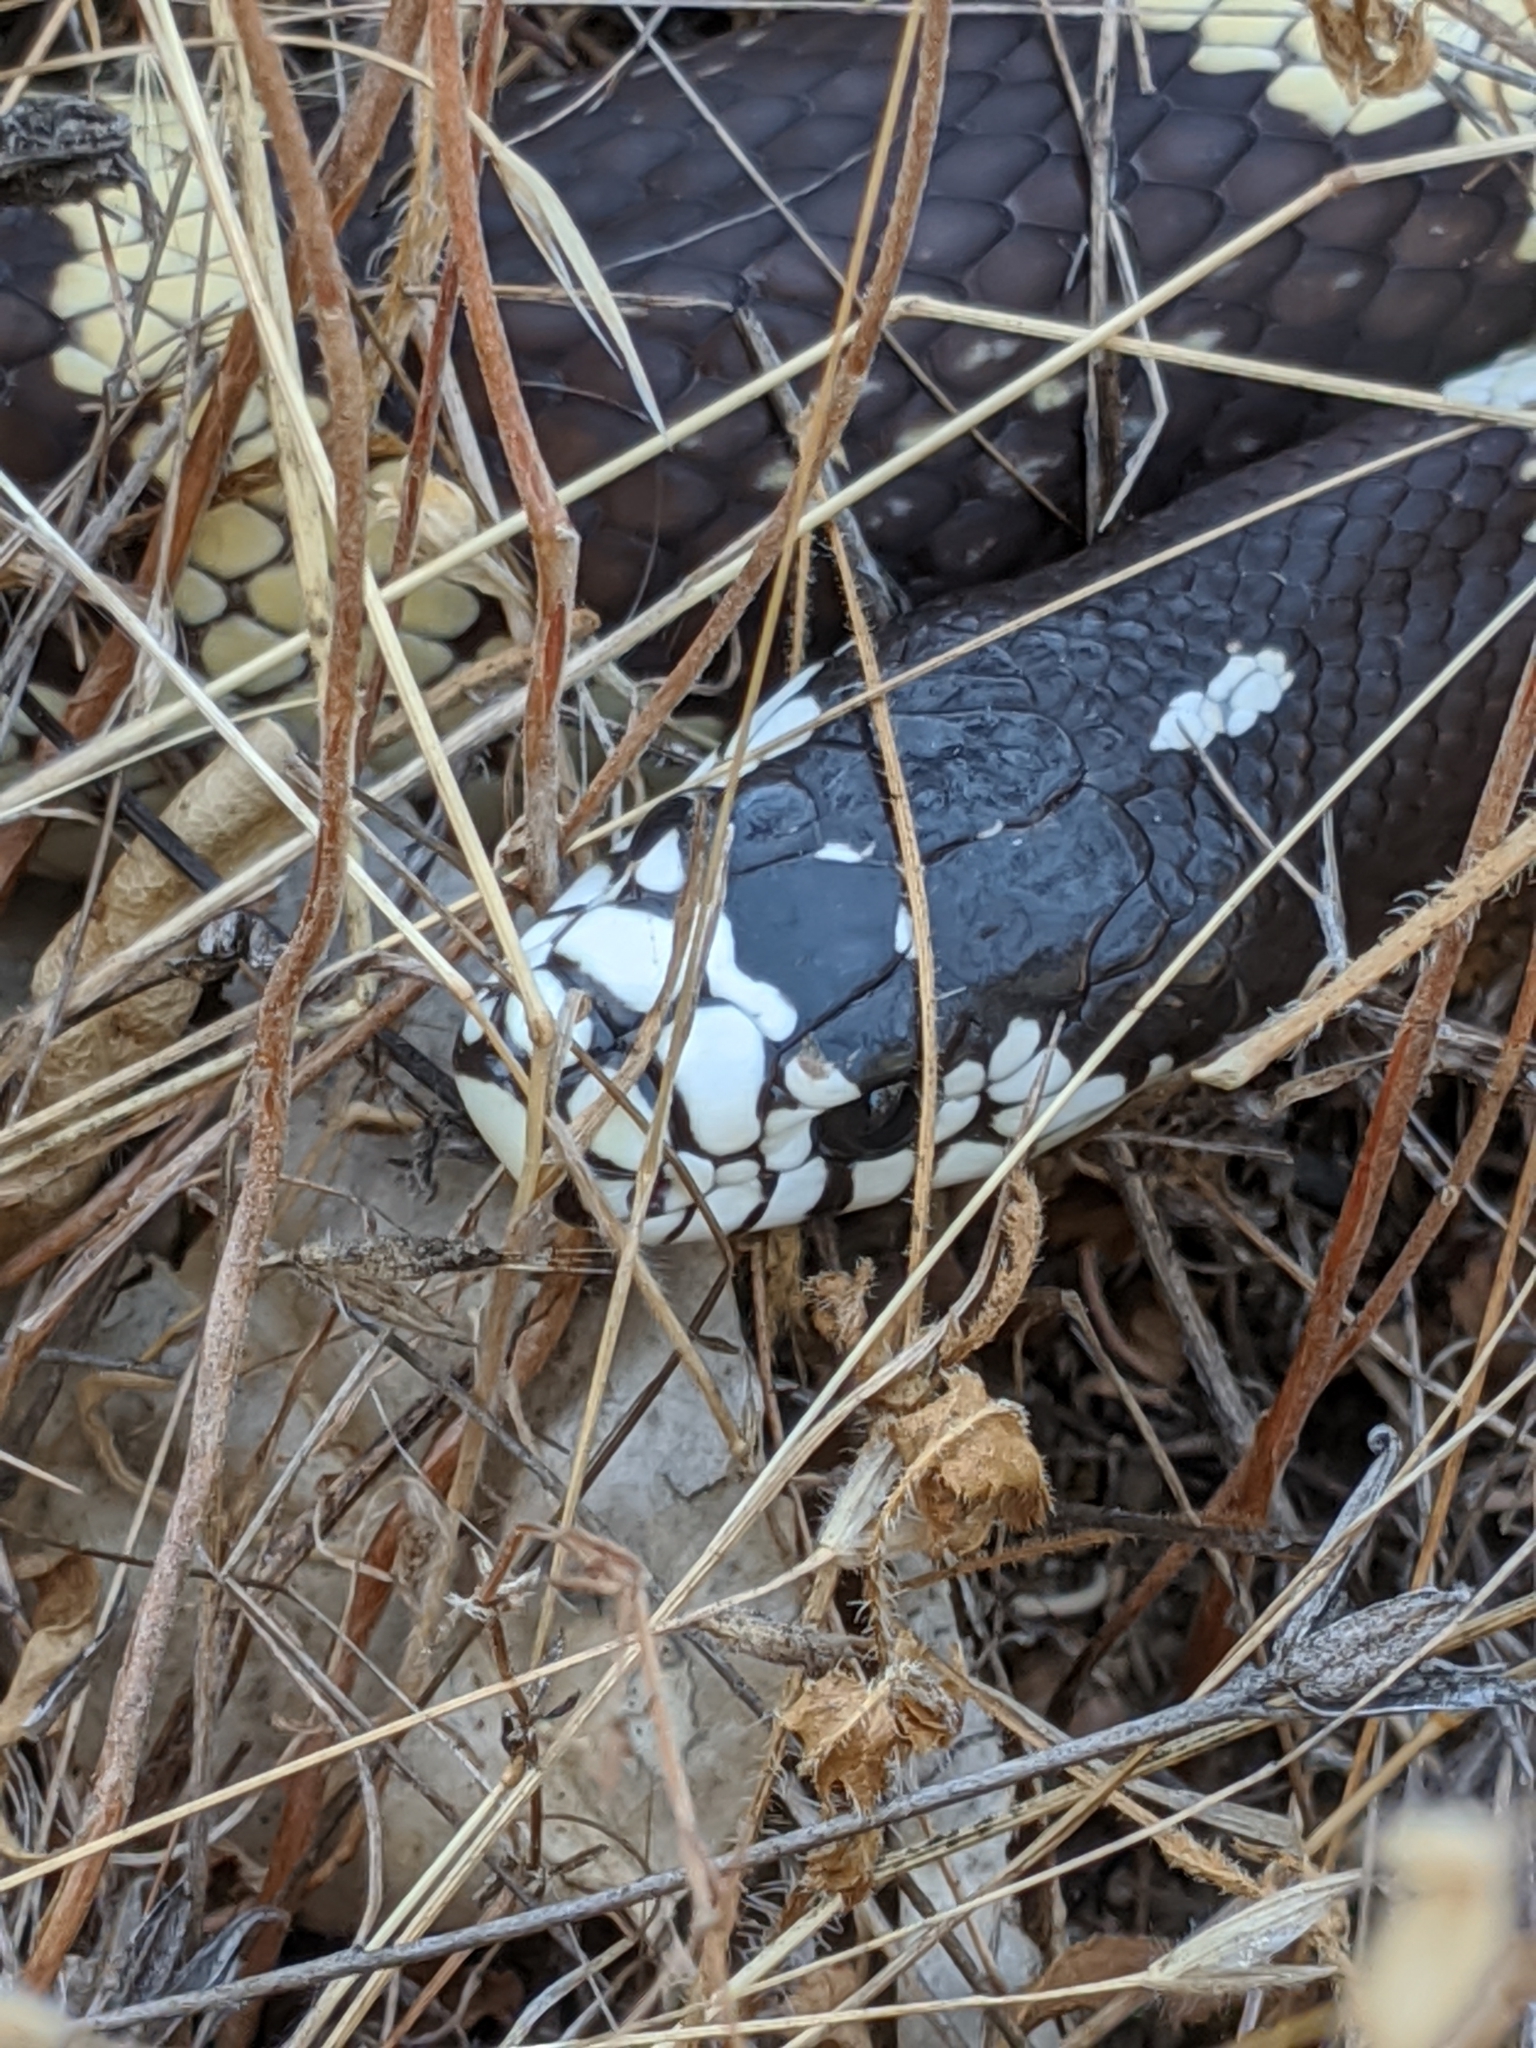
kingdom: Animalia
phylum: Chordata
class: Squamata
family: Colubridae
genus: Lampropeltis
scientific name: Lampropeltis californiae
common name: California kingsnake
